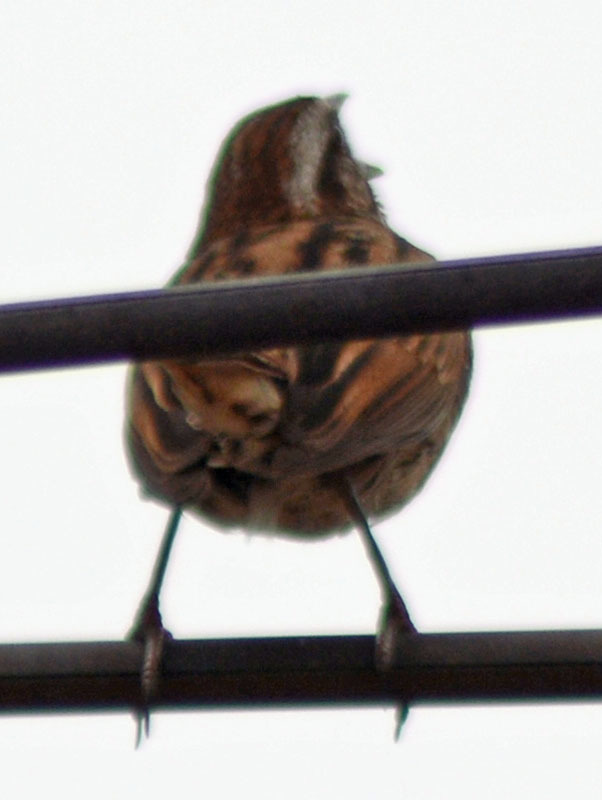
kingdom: Animalia
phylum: Chordata
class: Aves
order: Passeriformes
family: Passerellidae
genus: Melospiza
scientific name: Melospiza melodia
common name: Song sparrow
